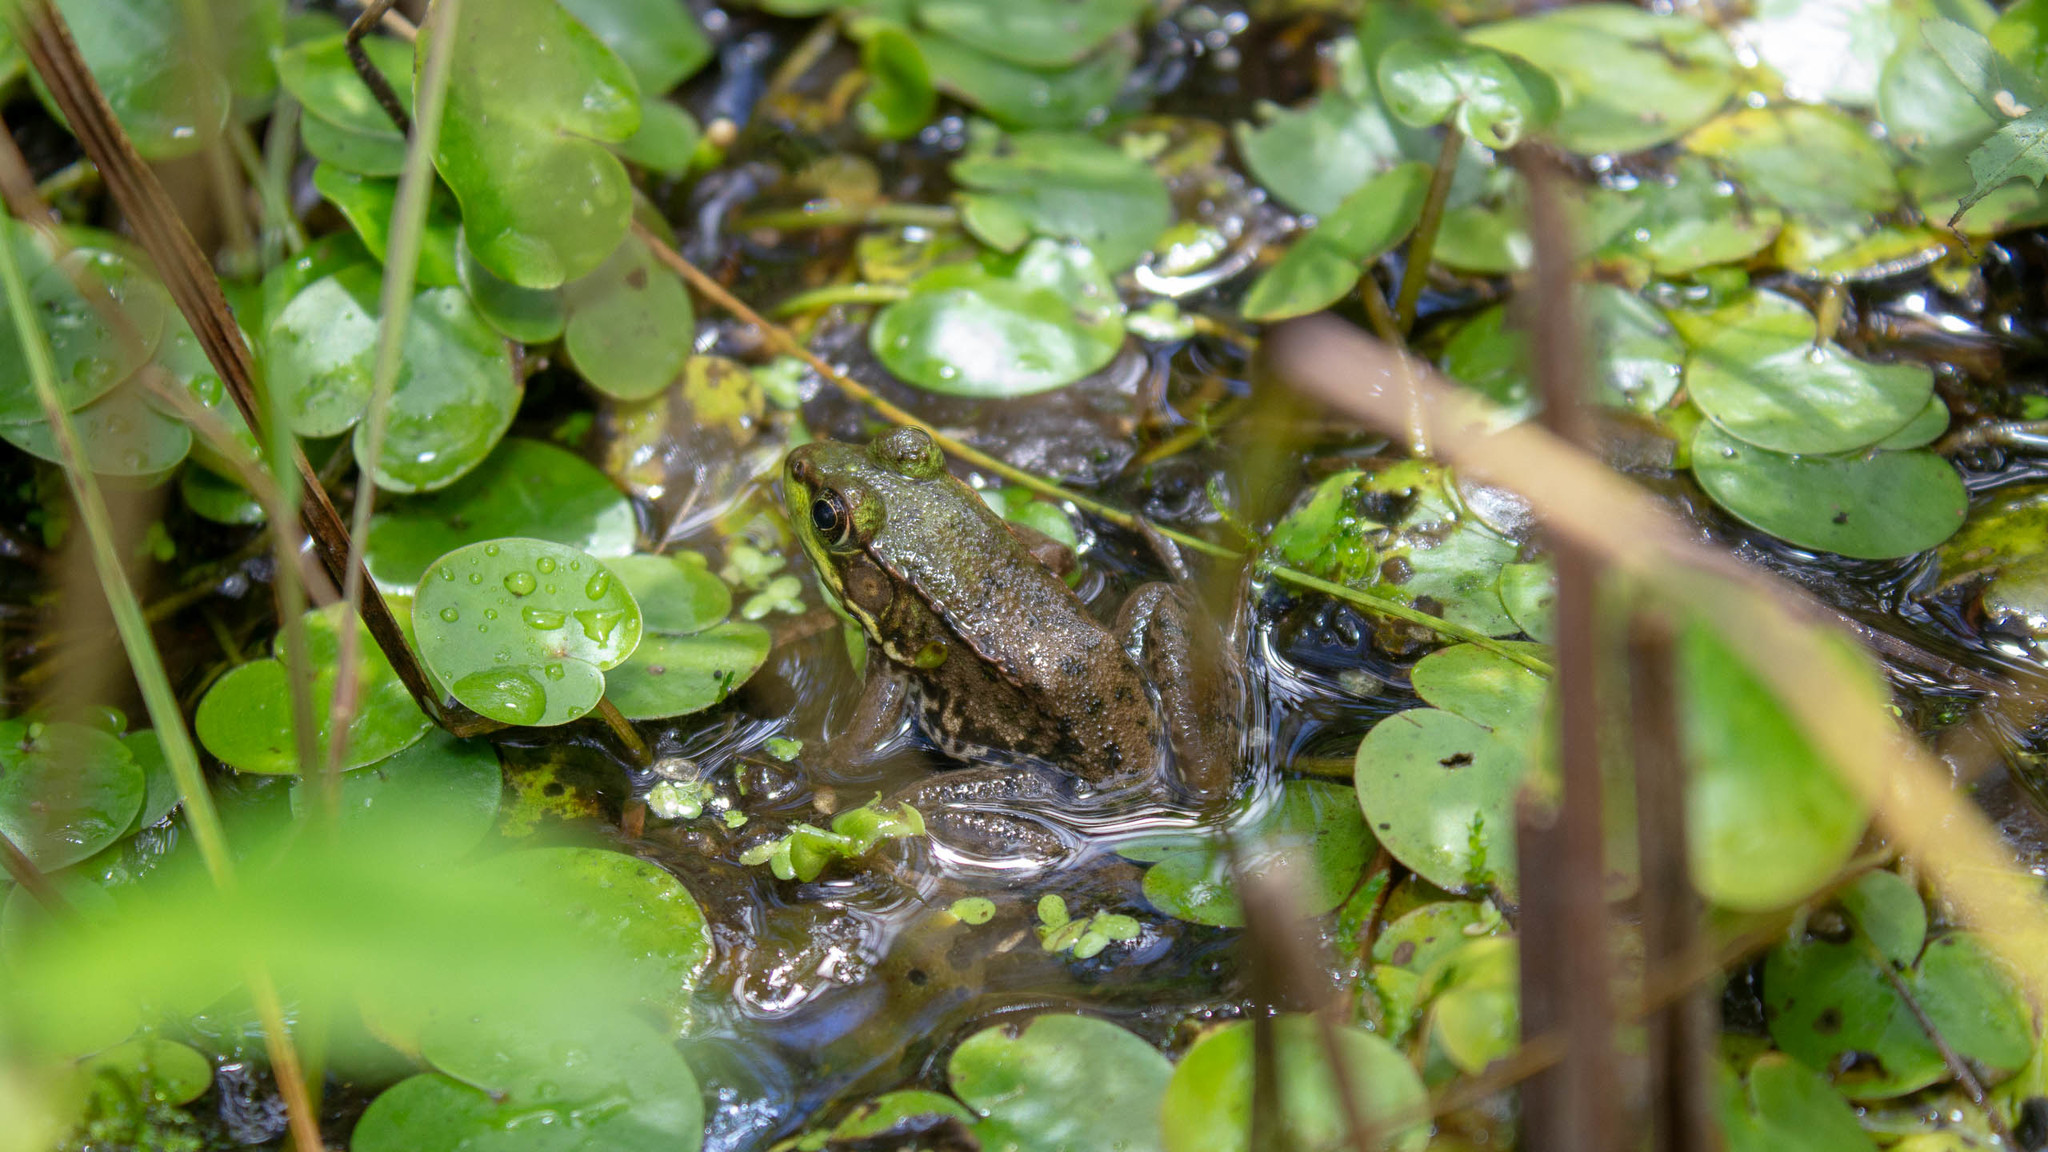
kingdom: Animalia
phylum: Chordata
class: Amphibia
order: Anura
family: Ranidae
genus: Lithobates
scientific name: Lithobates clamitans
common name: Green frog
